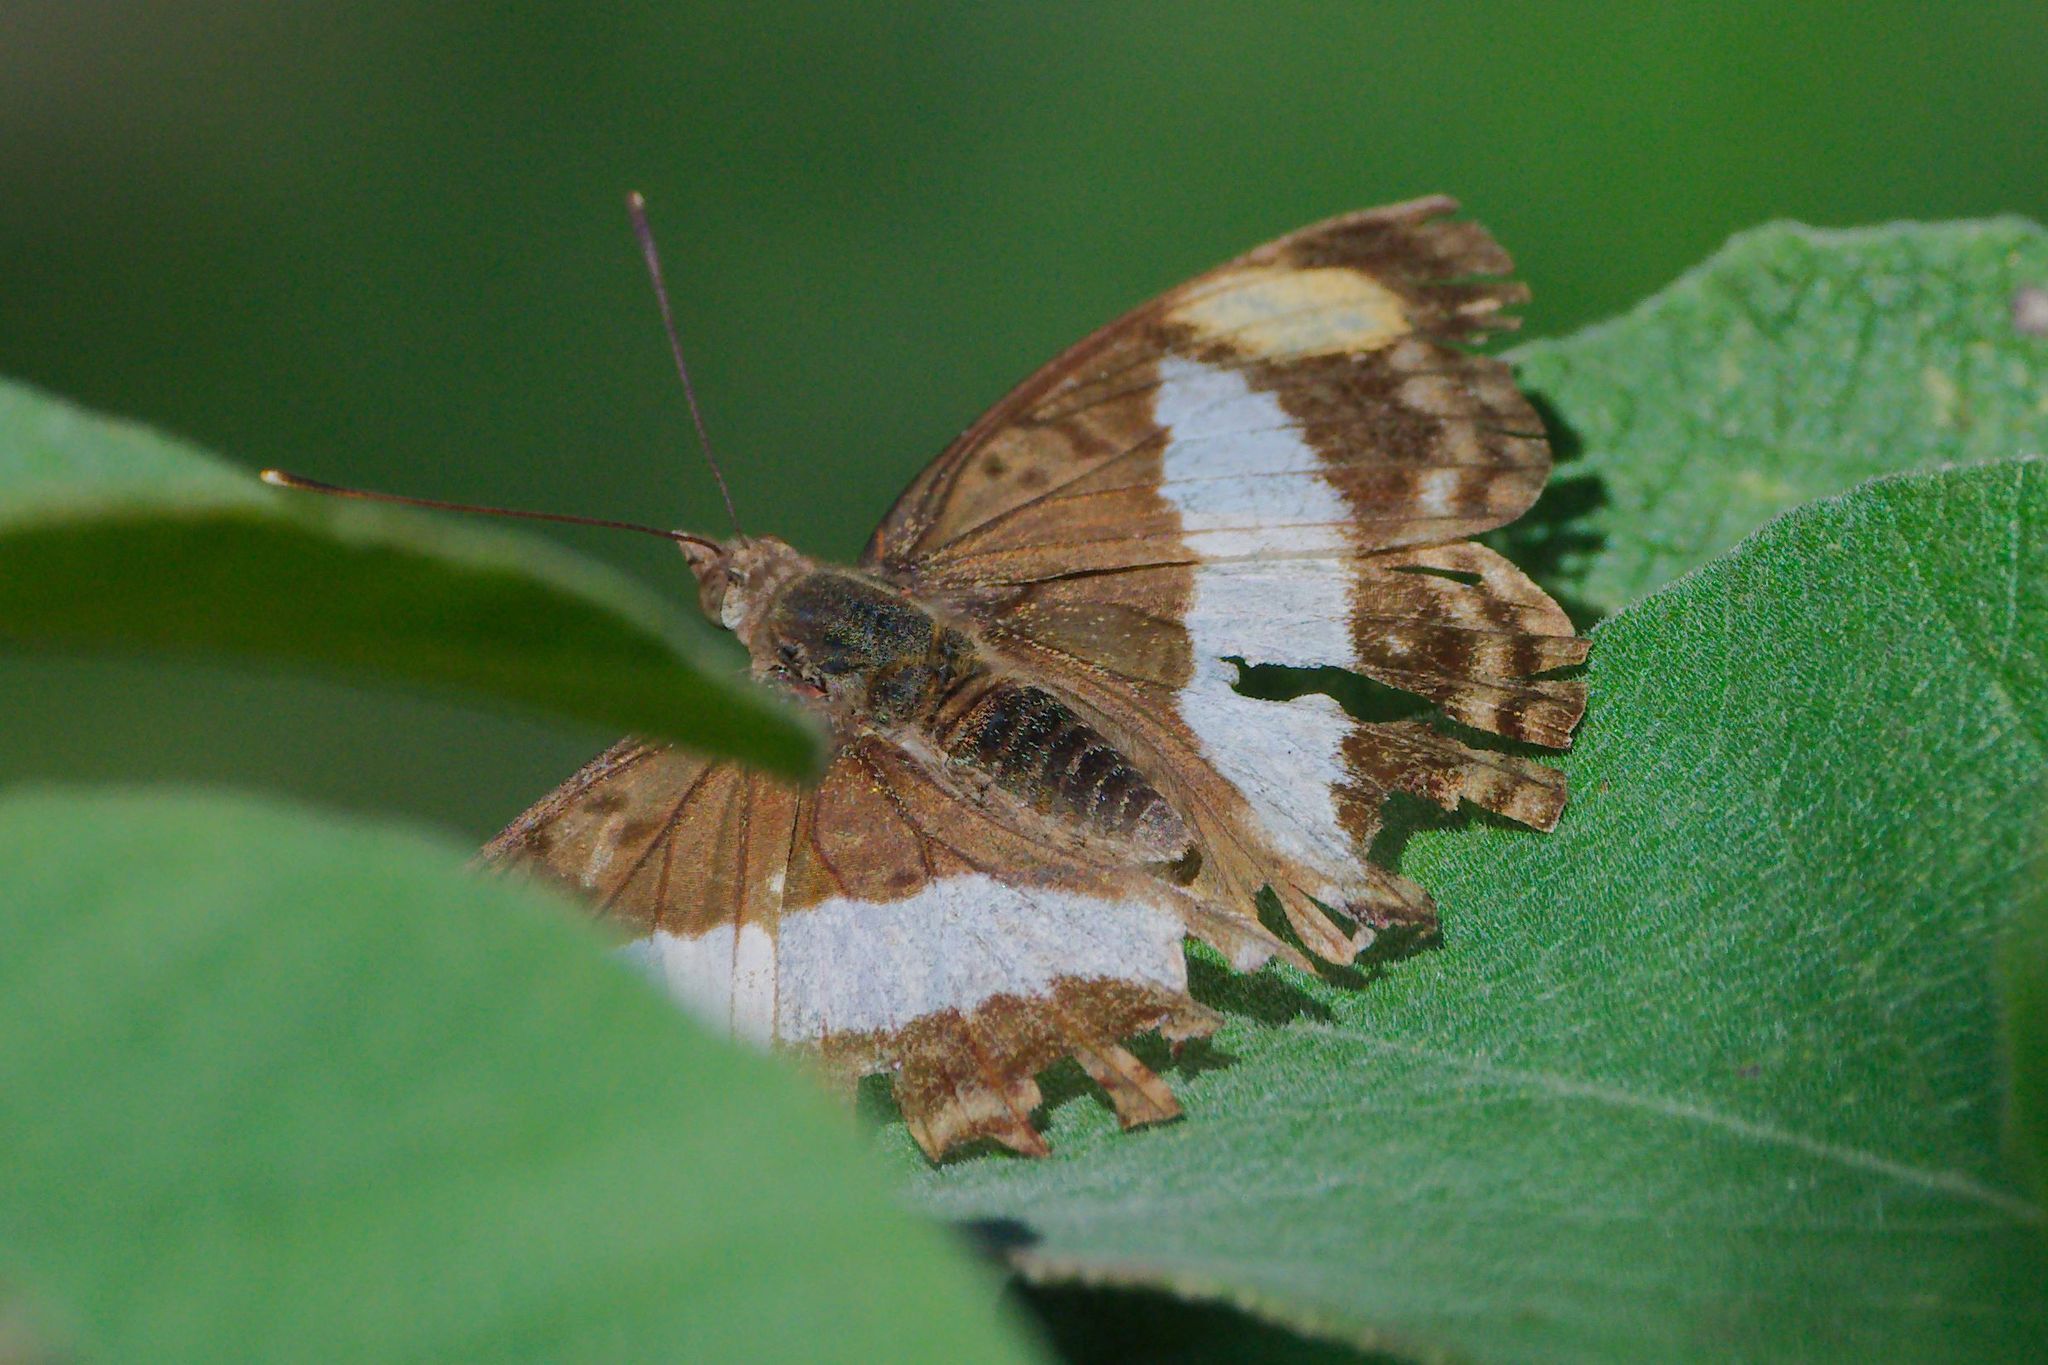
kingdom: Animalia
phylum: Arthropoda
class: Insecta
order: Lepidoptera
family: Nymphalidae
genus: Doxocopa
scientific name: Doxocopa pavon
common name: Pavon emperor
